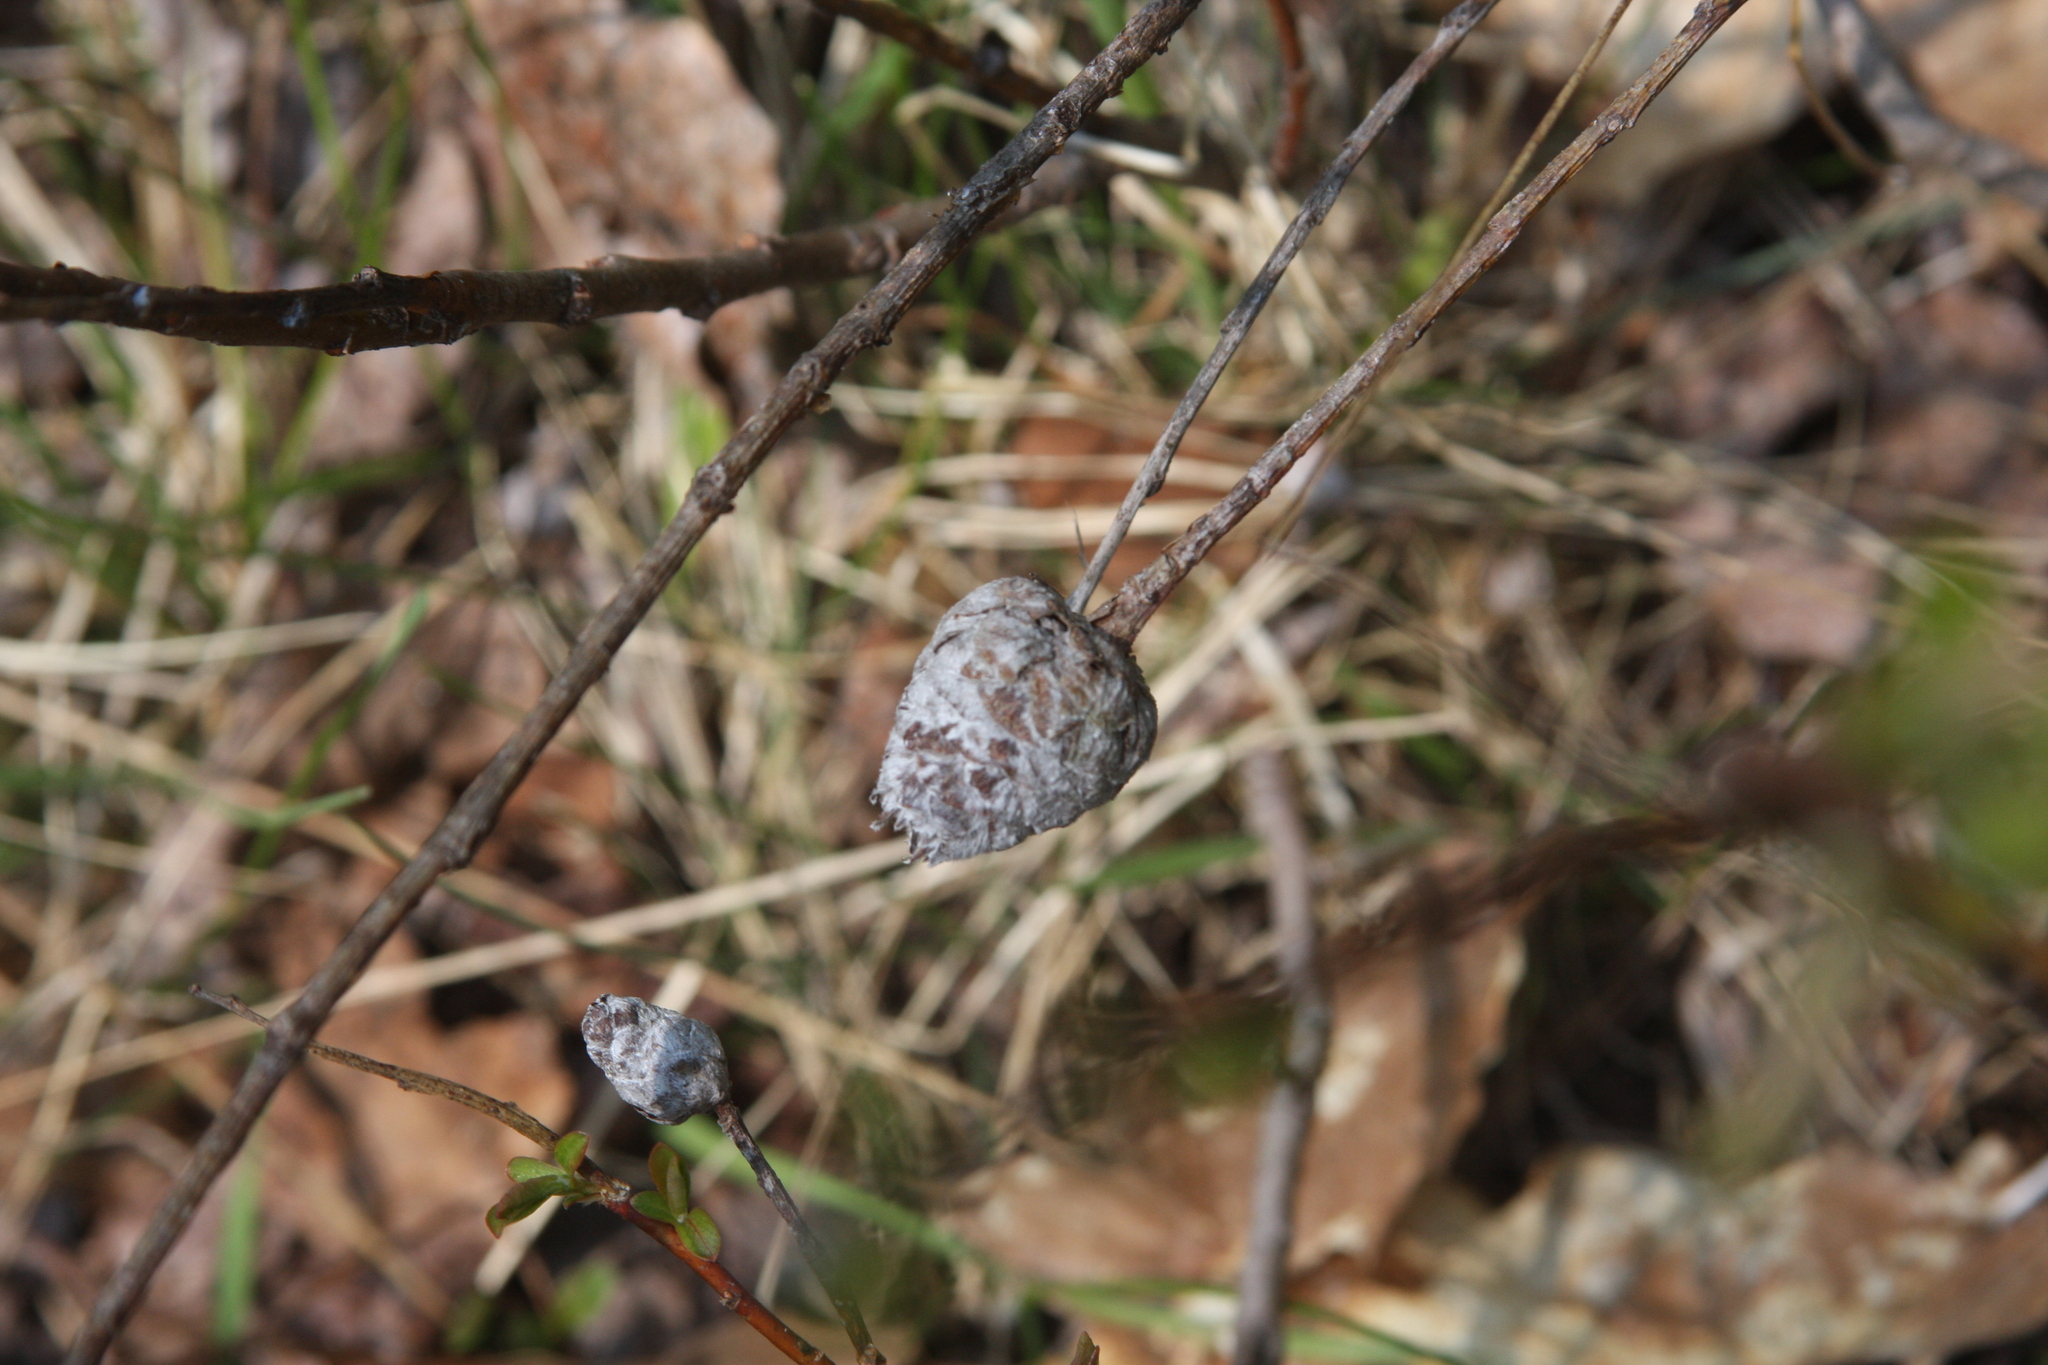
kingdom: Animalia
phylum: Arthropoda
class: Insecta
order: Diptera
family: Cecidomyiidae
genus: Rabdophaga
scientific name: Rabdophaga strobiloides
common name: Willow pinecone gall midge
